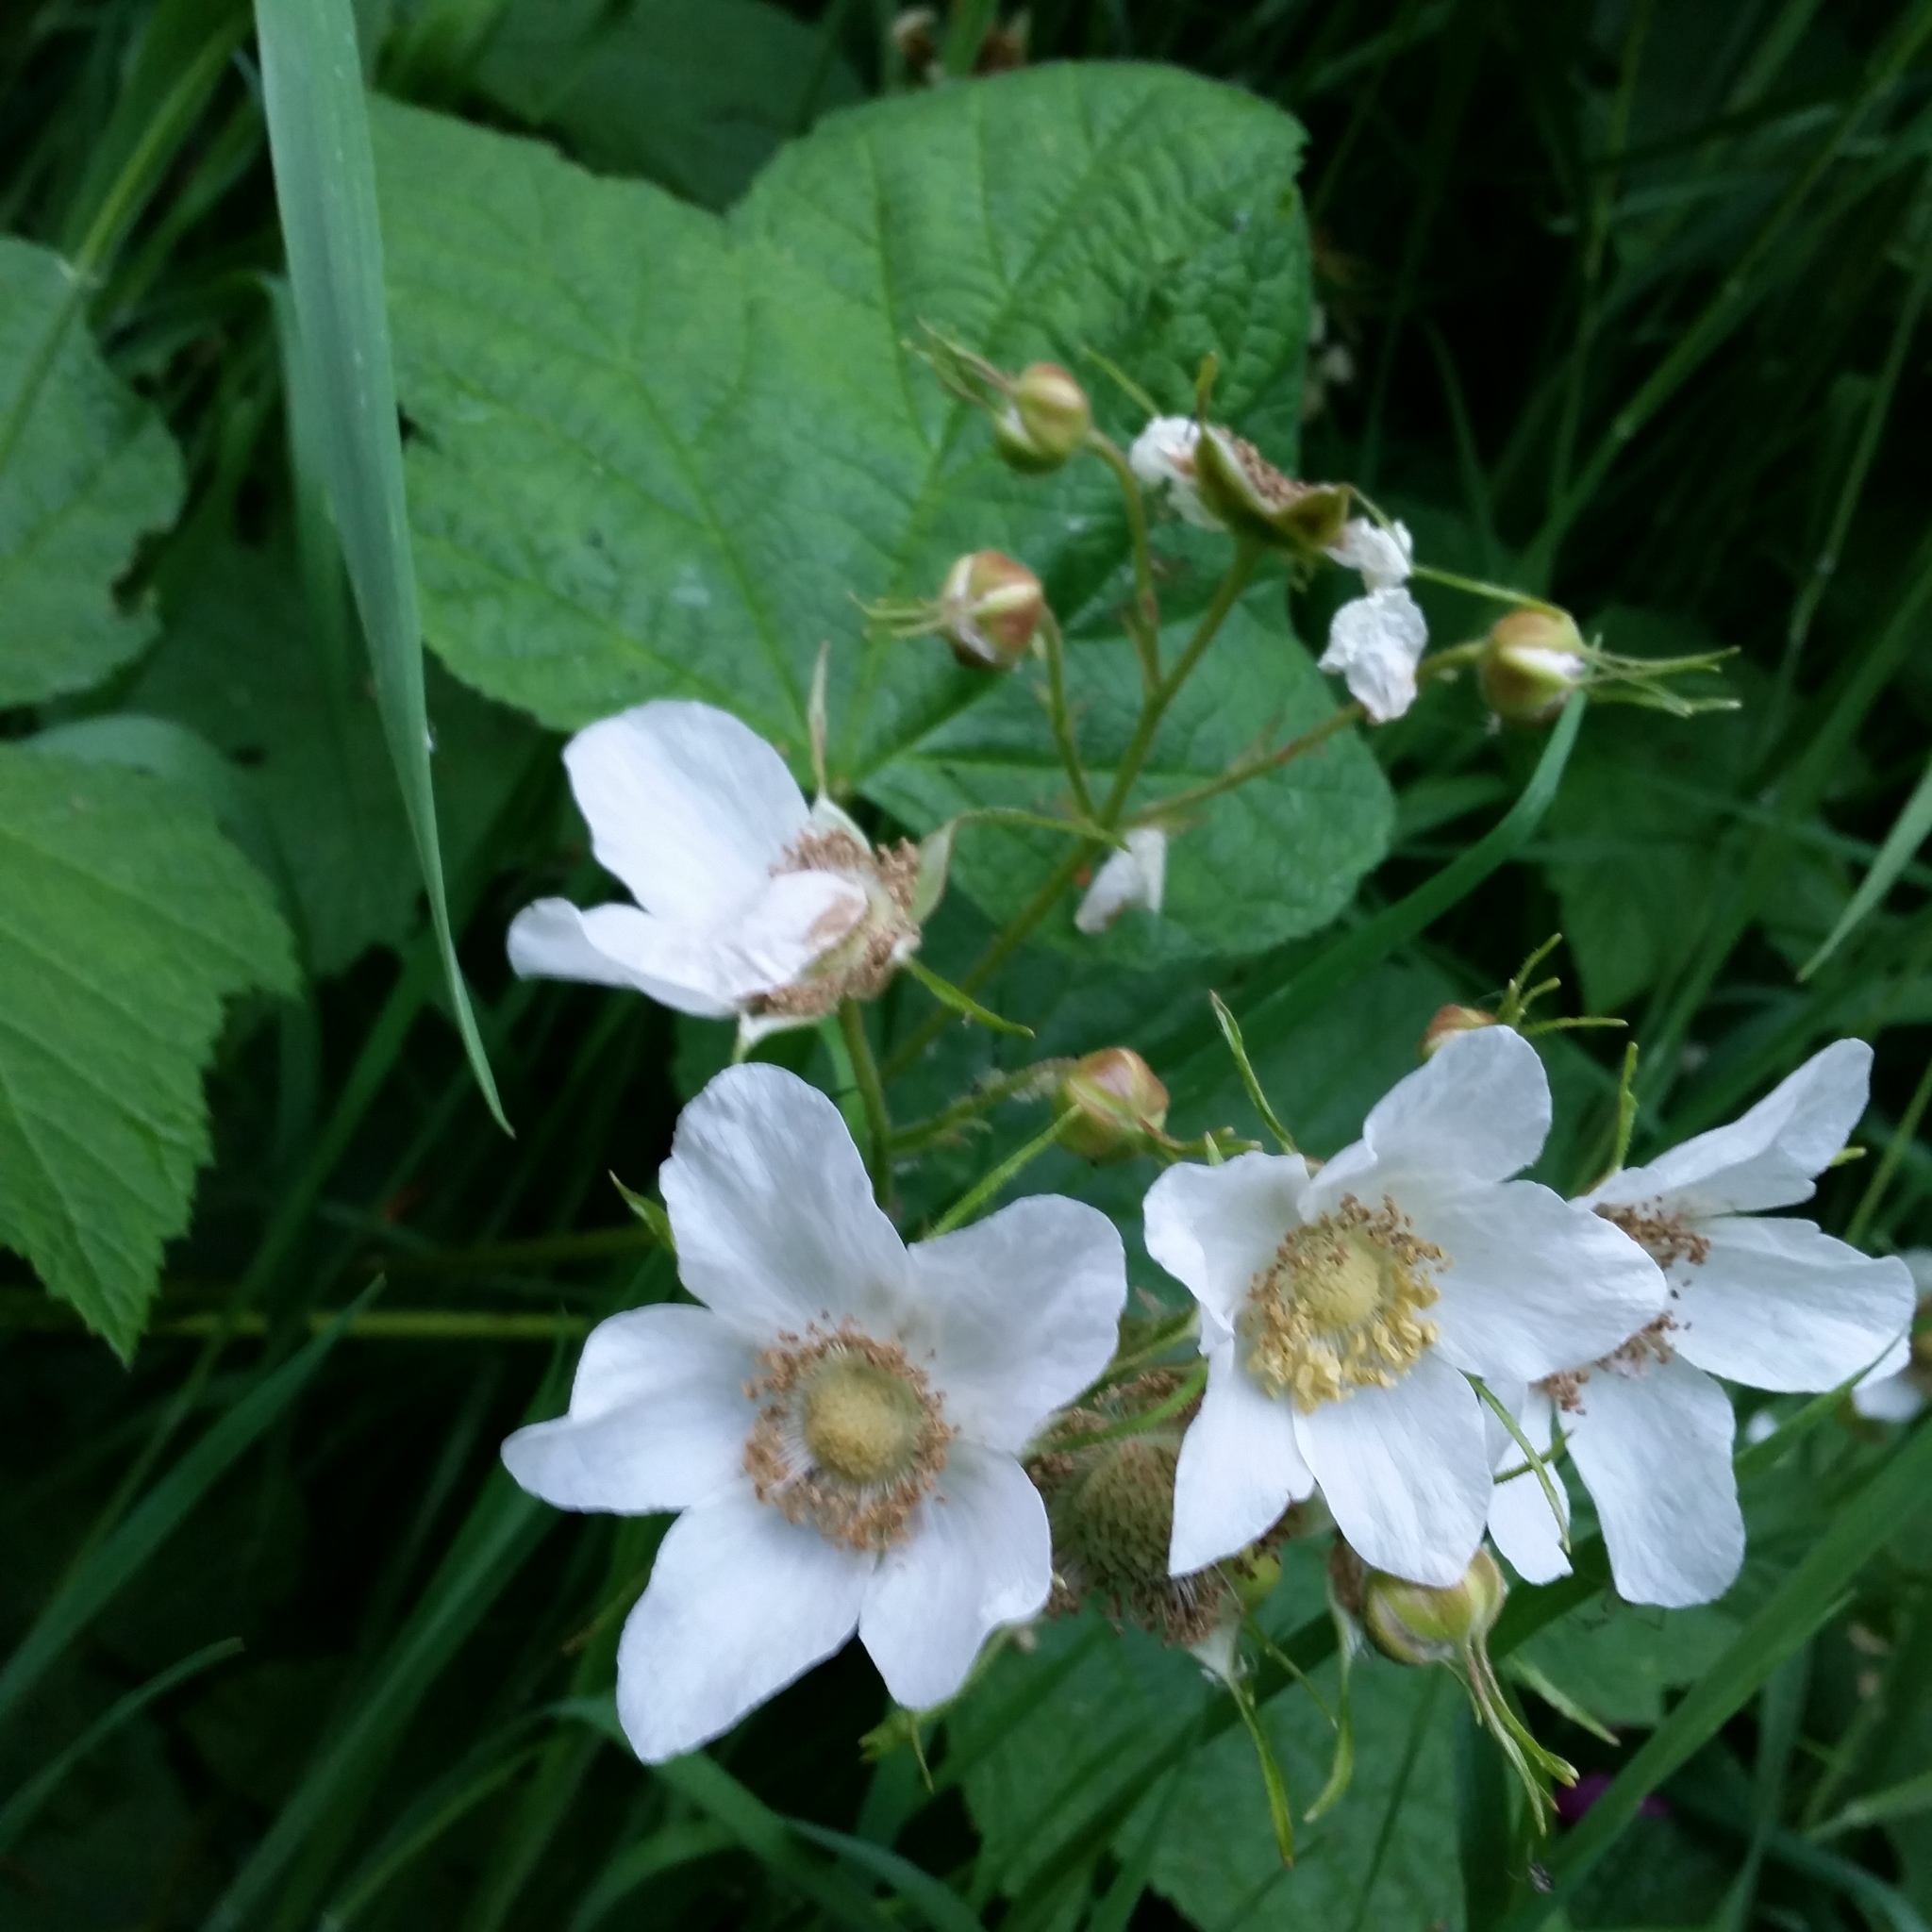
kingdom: Plantae
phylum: Tracheophyta
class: Magnoliopsida
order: Rosales
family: Rosaceae
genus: Rubus
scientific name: Rubus parviflorus
